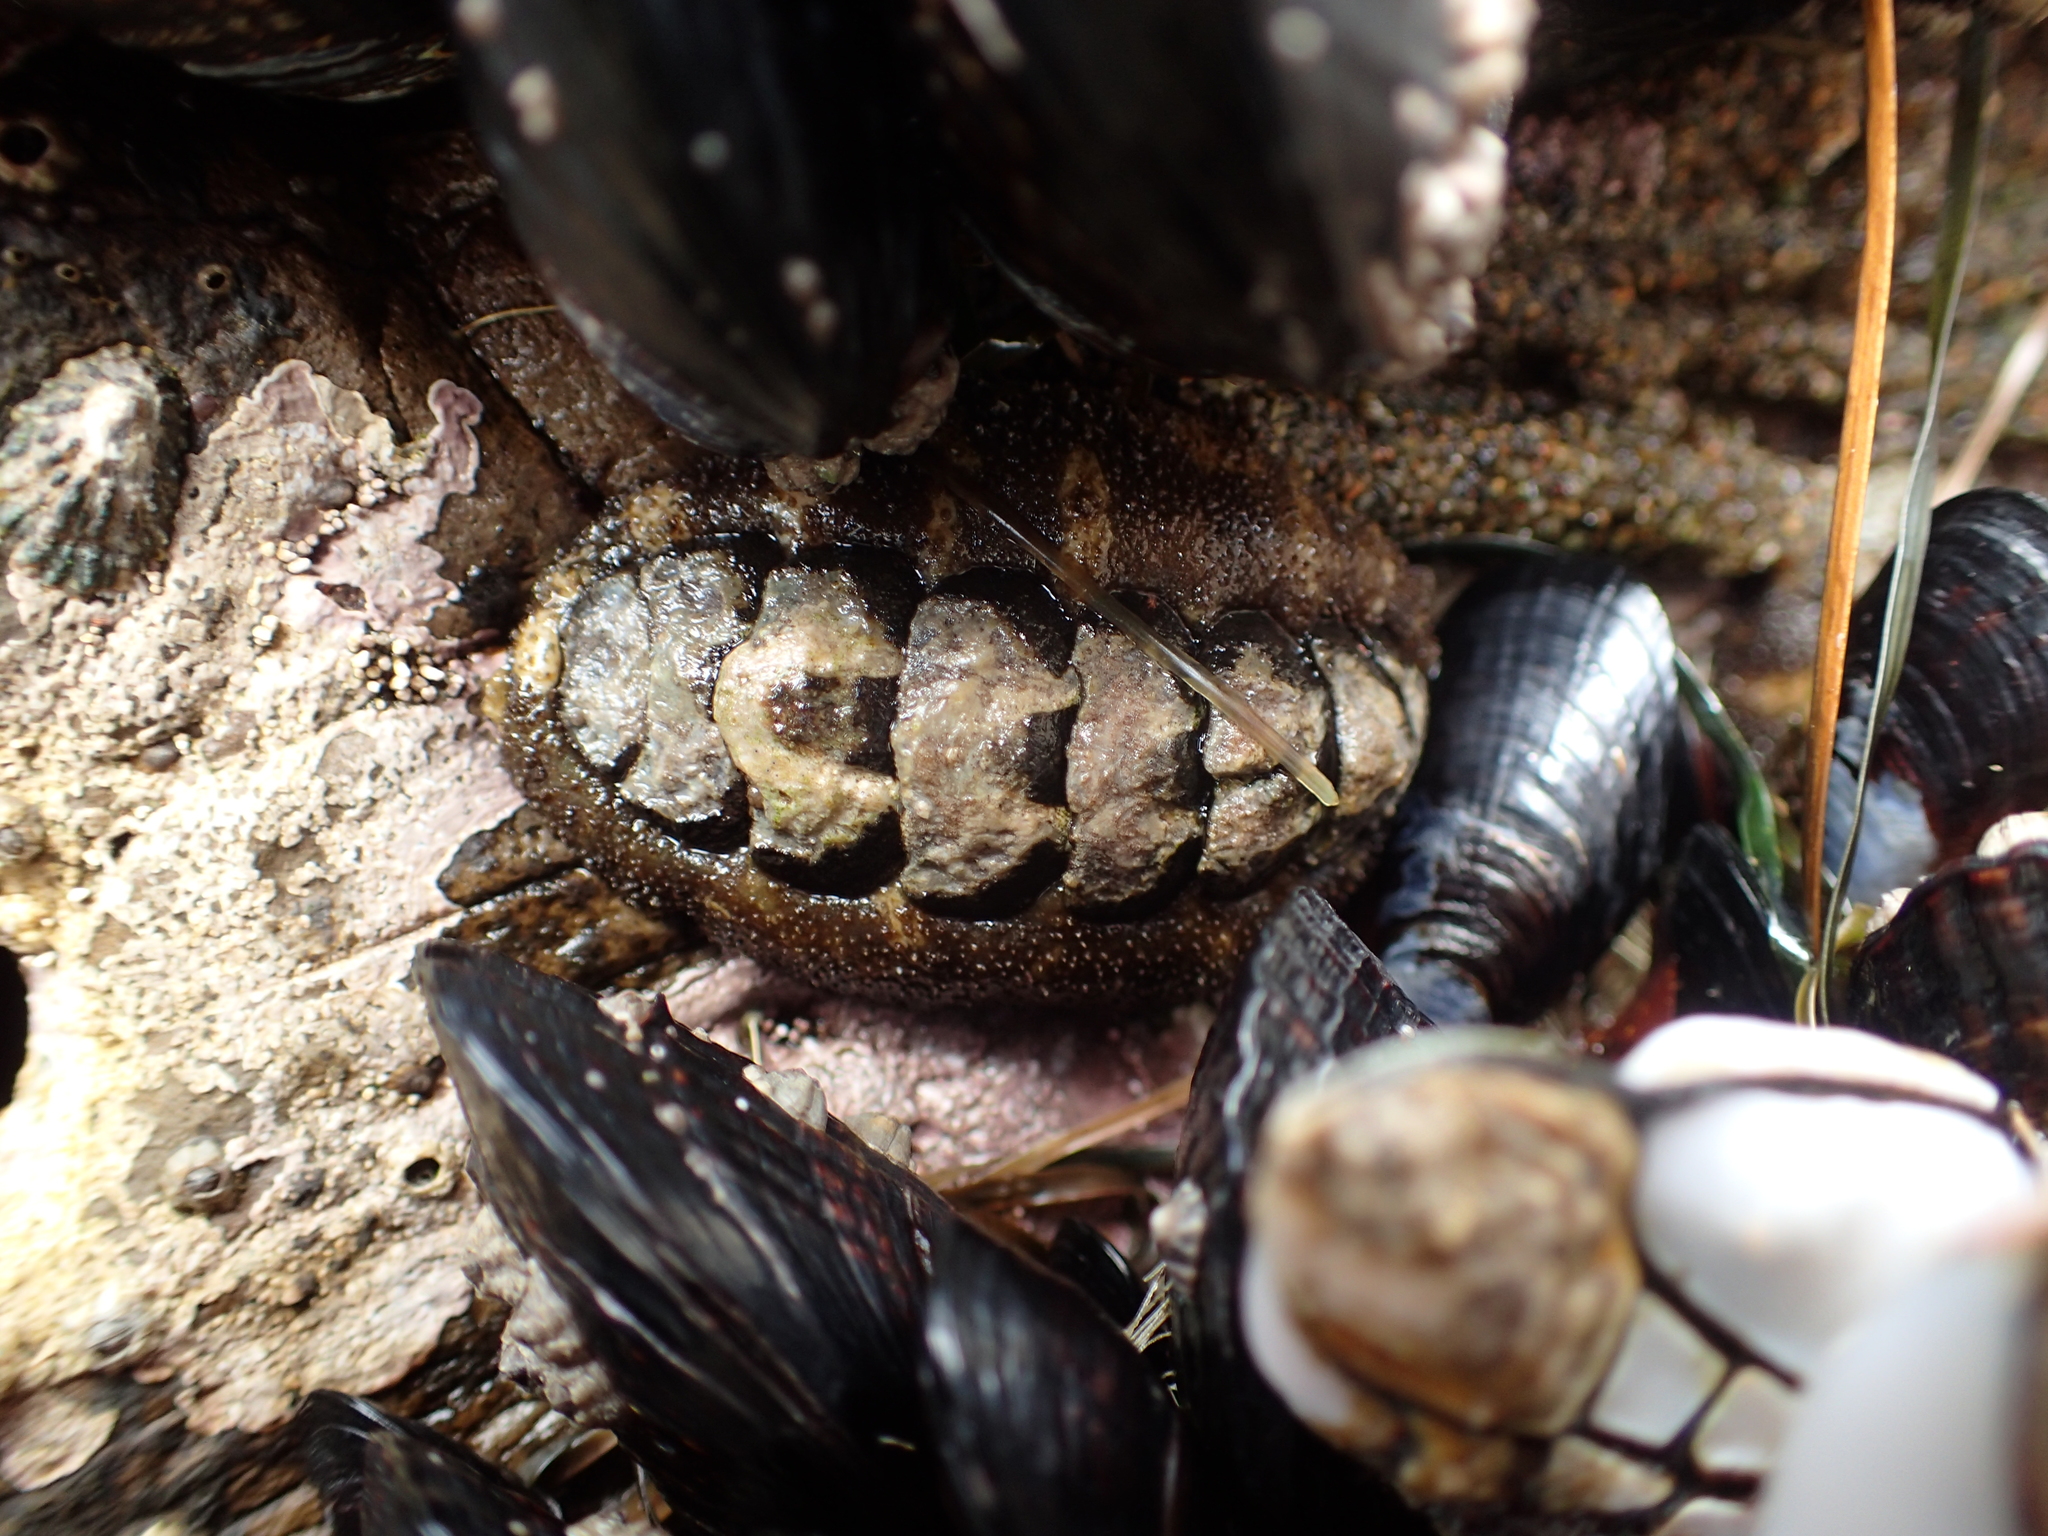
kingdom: Animalia
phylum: Mollusca
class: Polyplacophora
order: Chitonida
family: Tonicellidae
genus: Nuttallina
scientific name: Nuttallina californica
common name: California nuttall chiton
